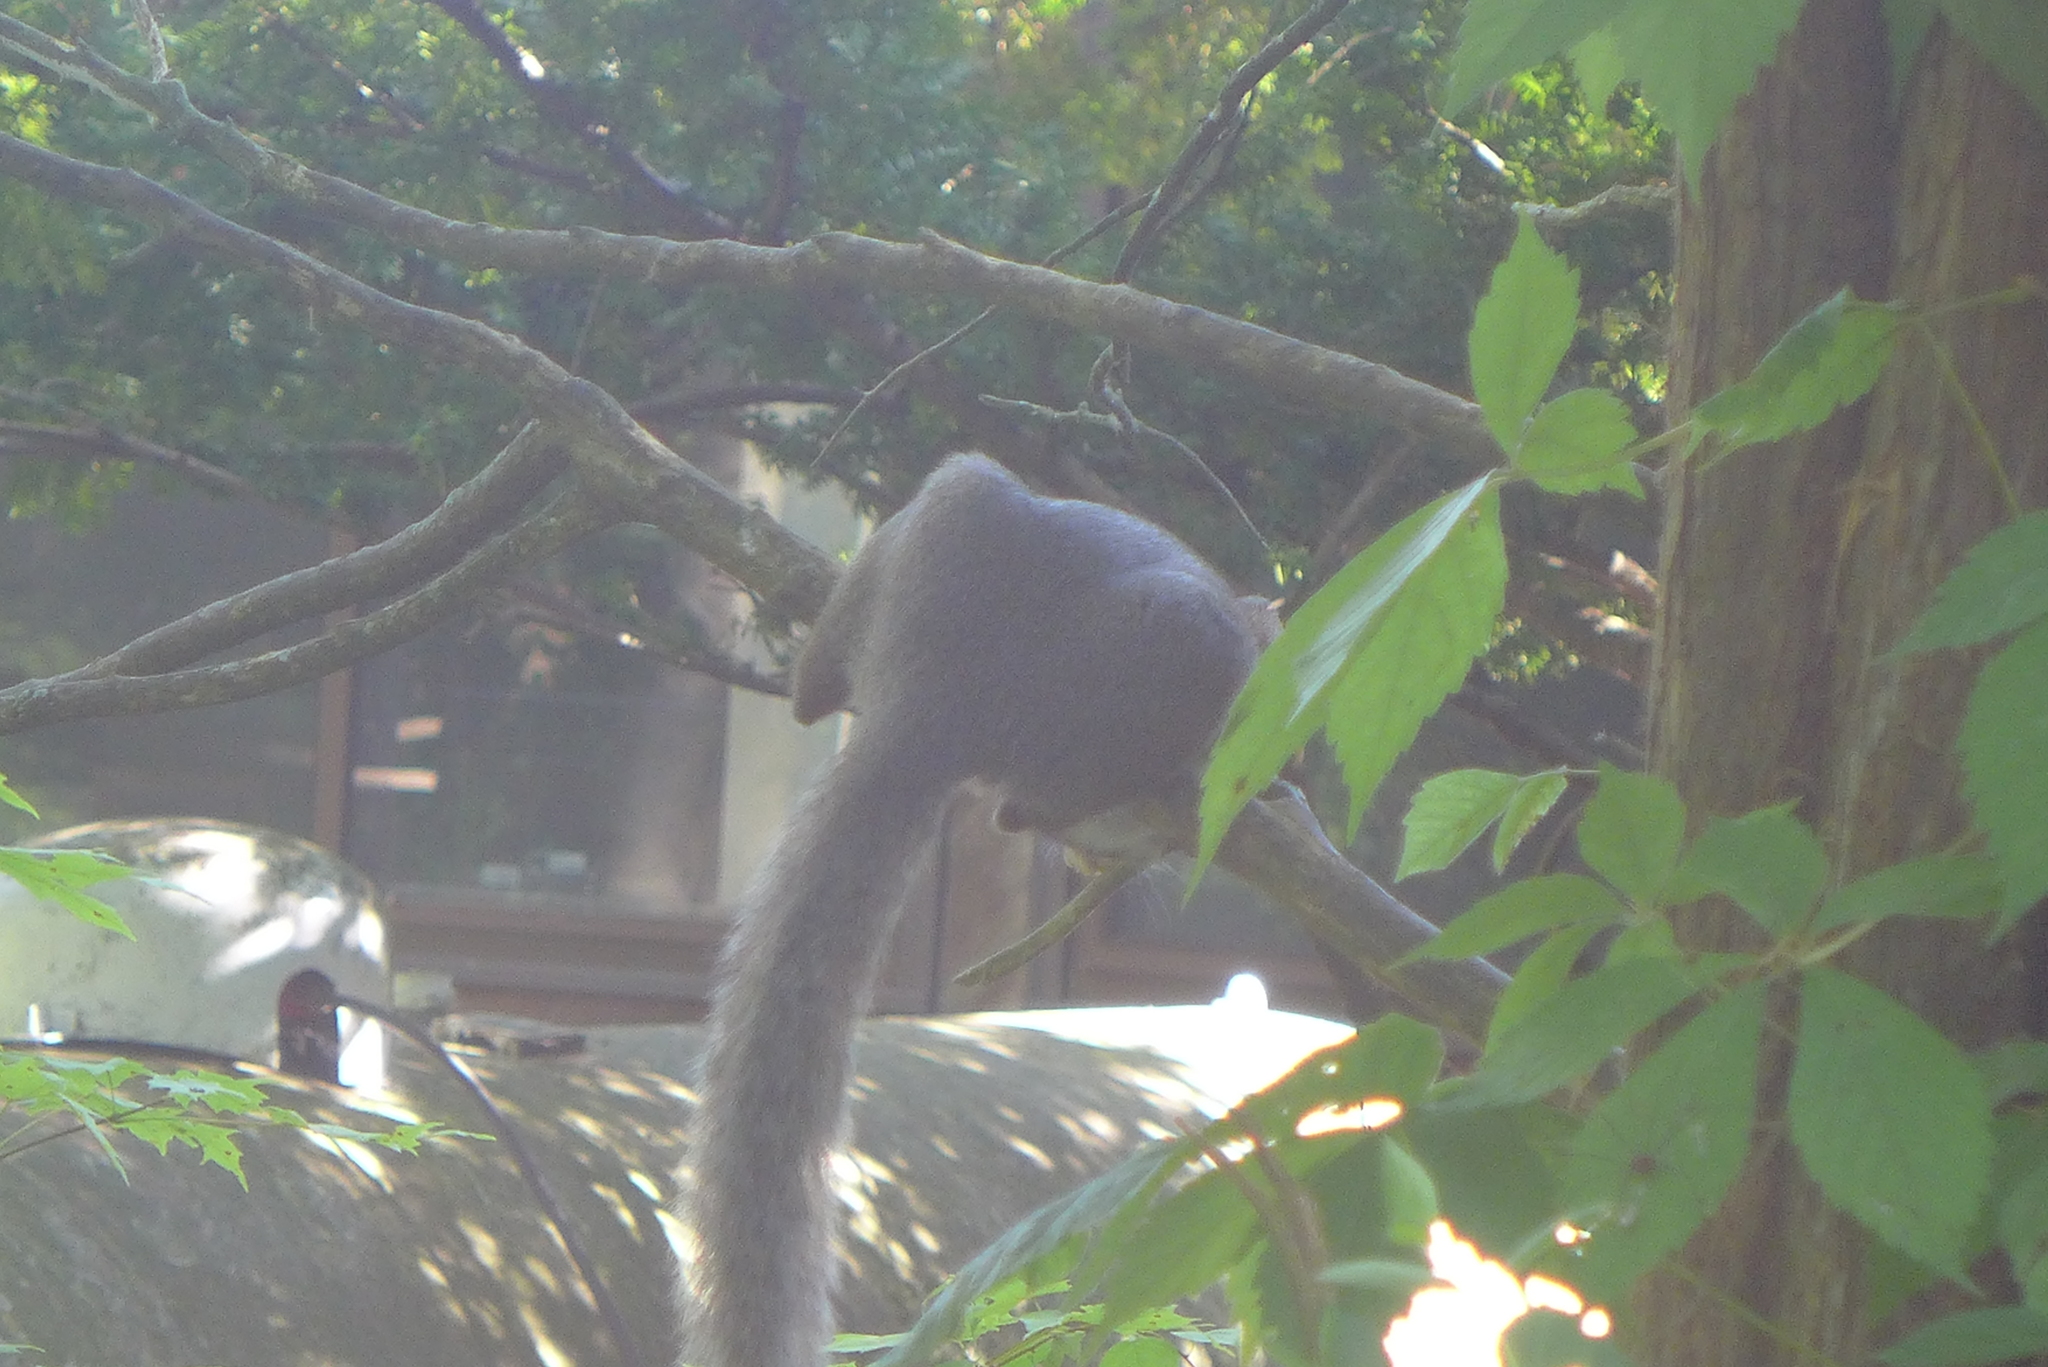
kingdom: Animalia
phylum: Chordata
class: Mammalia
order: Rodentia
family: Sciuridae
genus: Sciurus
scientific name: Sciurus carolinensis
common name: Eastern gray squirrel
